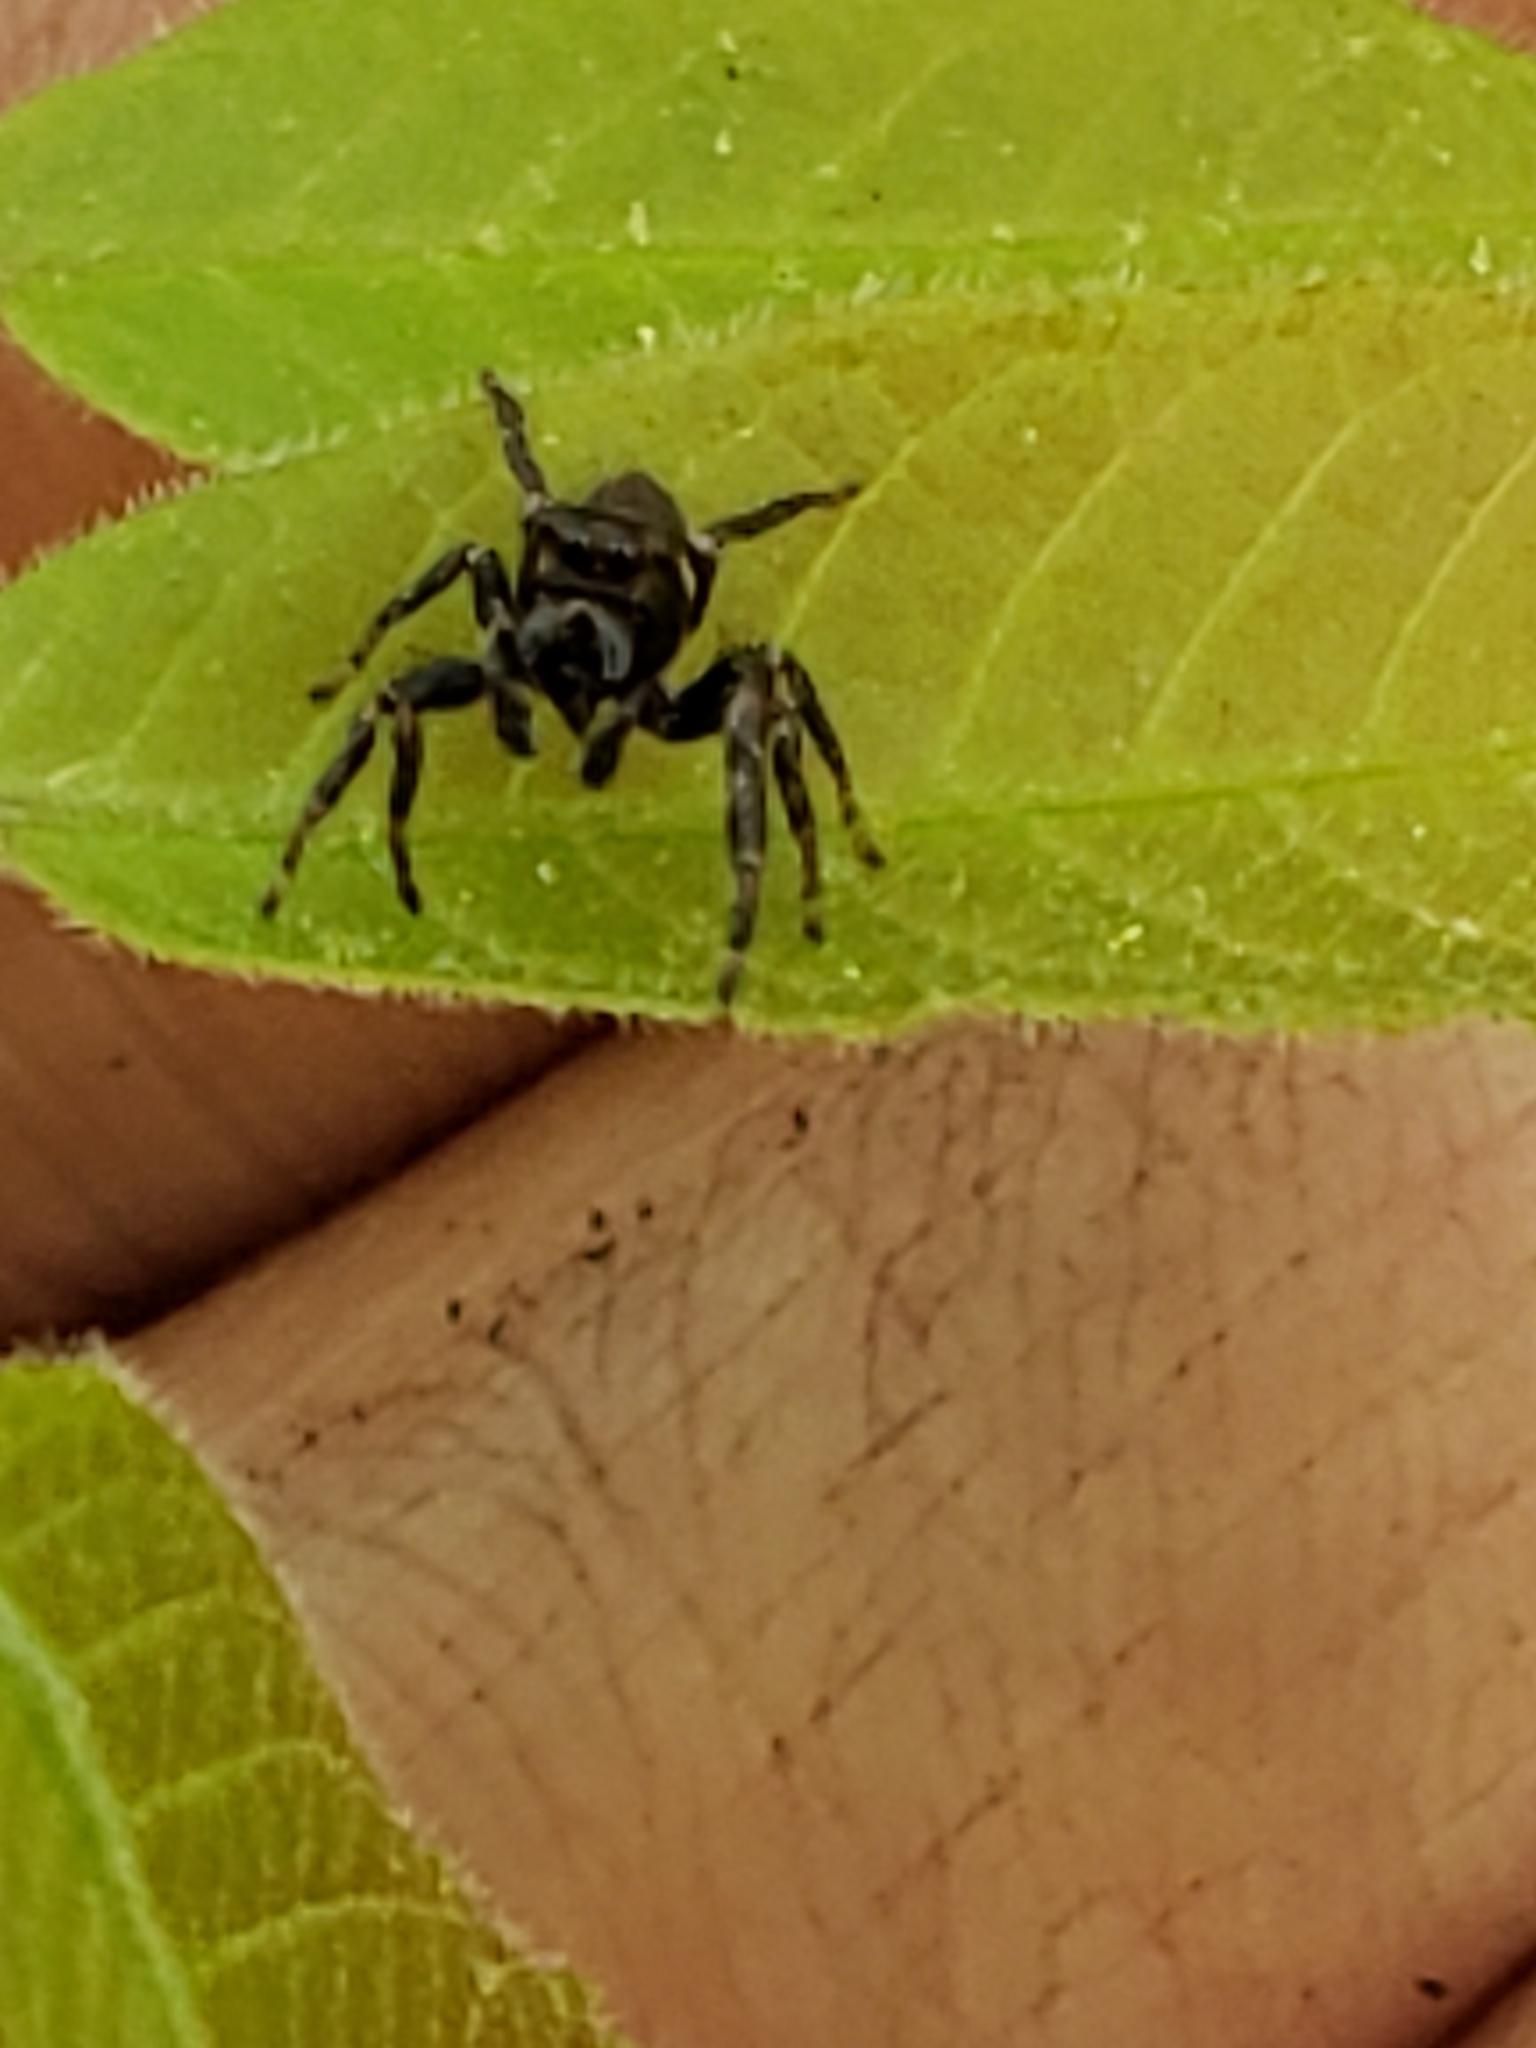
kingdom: Animalia
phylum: Arthropoda
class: Arachnida
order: Araneae
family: Salticidae
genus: Eris
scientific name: Eris militaris
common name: Bronze jumper
